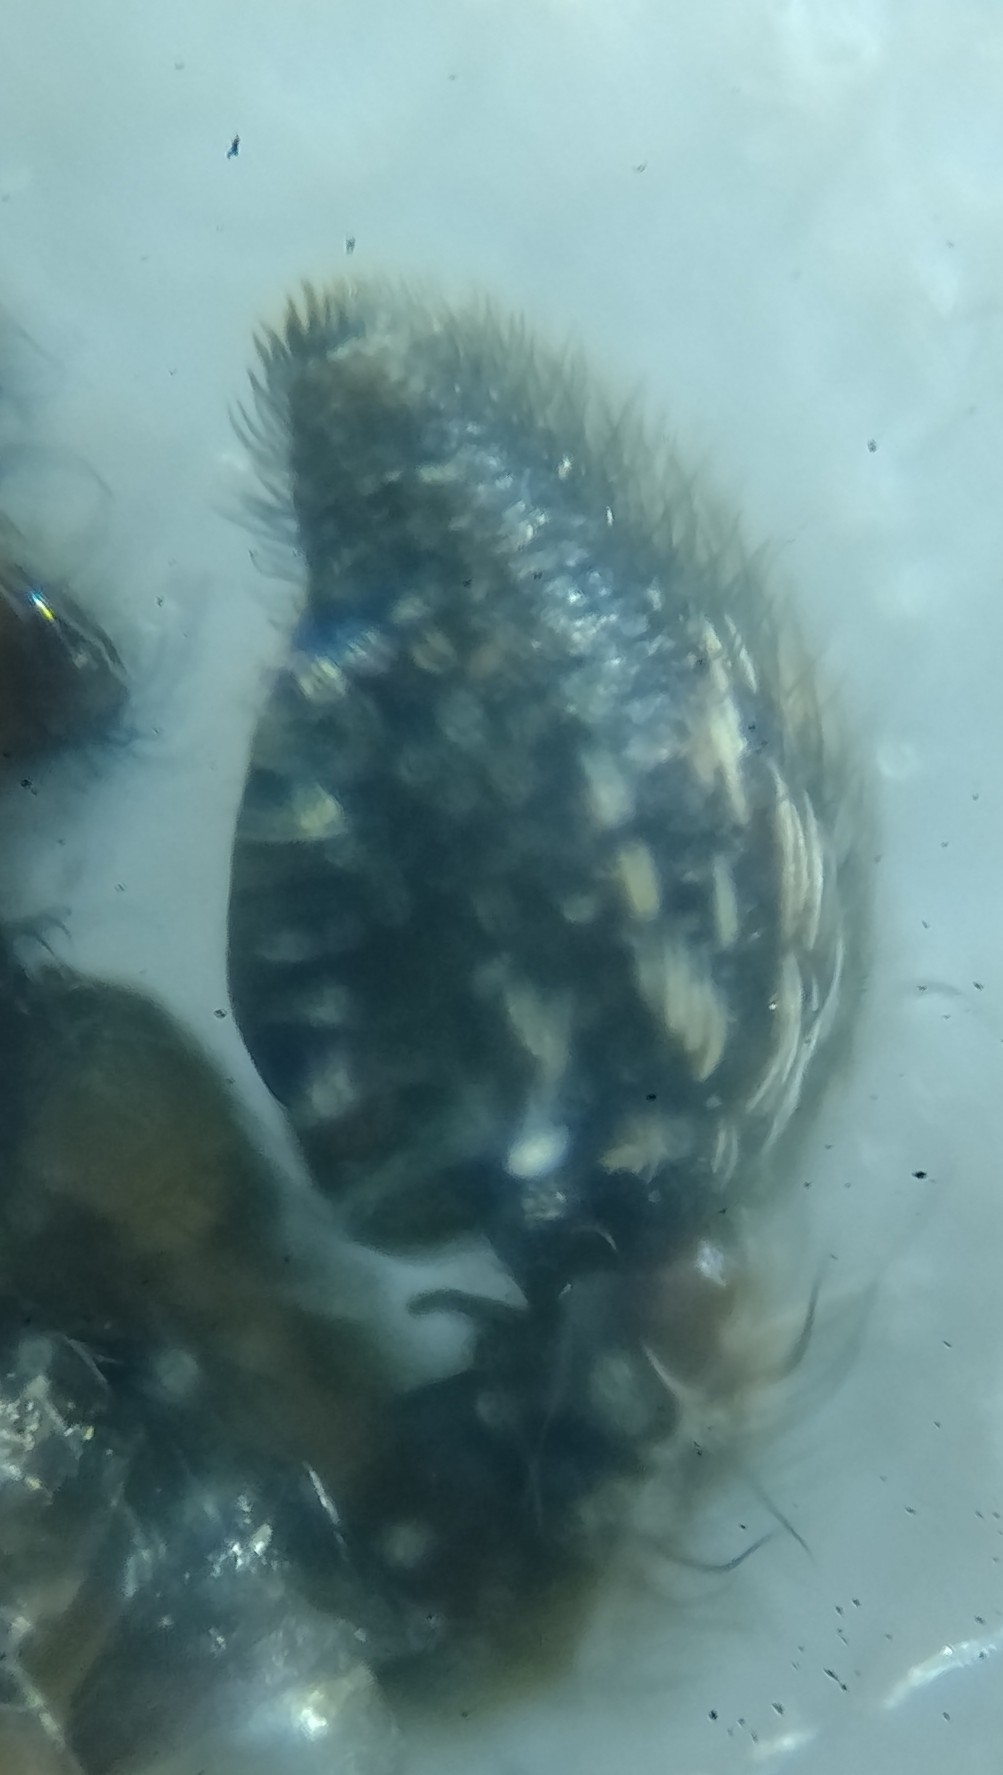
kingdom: Animalia
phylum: Arthropoda
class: Arachnida
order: Araneae
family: Philodromidae
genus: Philodromus
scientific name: Philodromus poecilus
